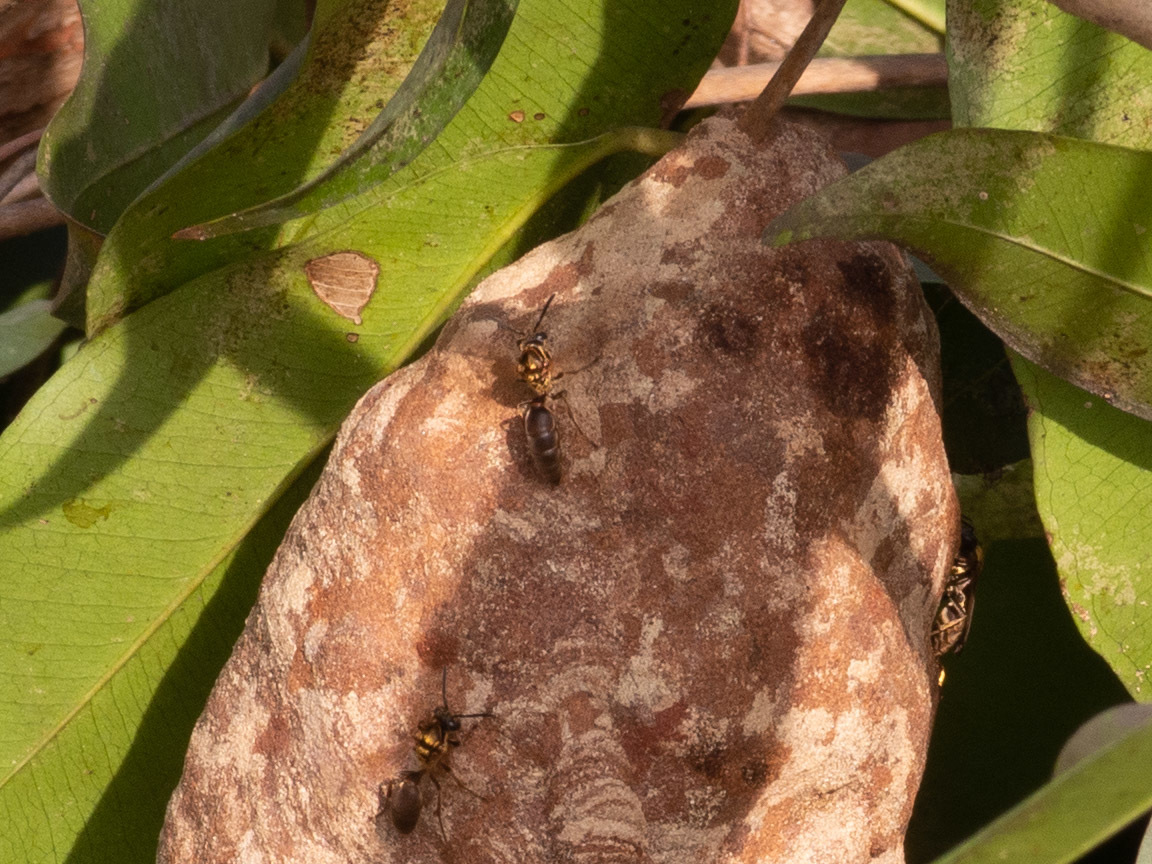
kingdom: Animalia
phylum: Arthropoda
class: Insecta
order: Hymenoptera
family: Eumenidae
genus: Polybia
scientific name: Polybia chrysothorax
